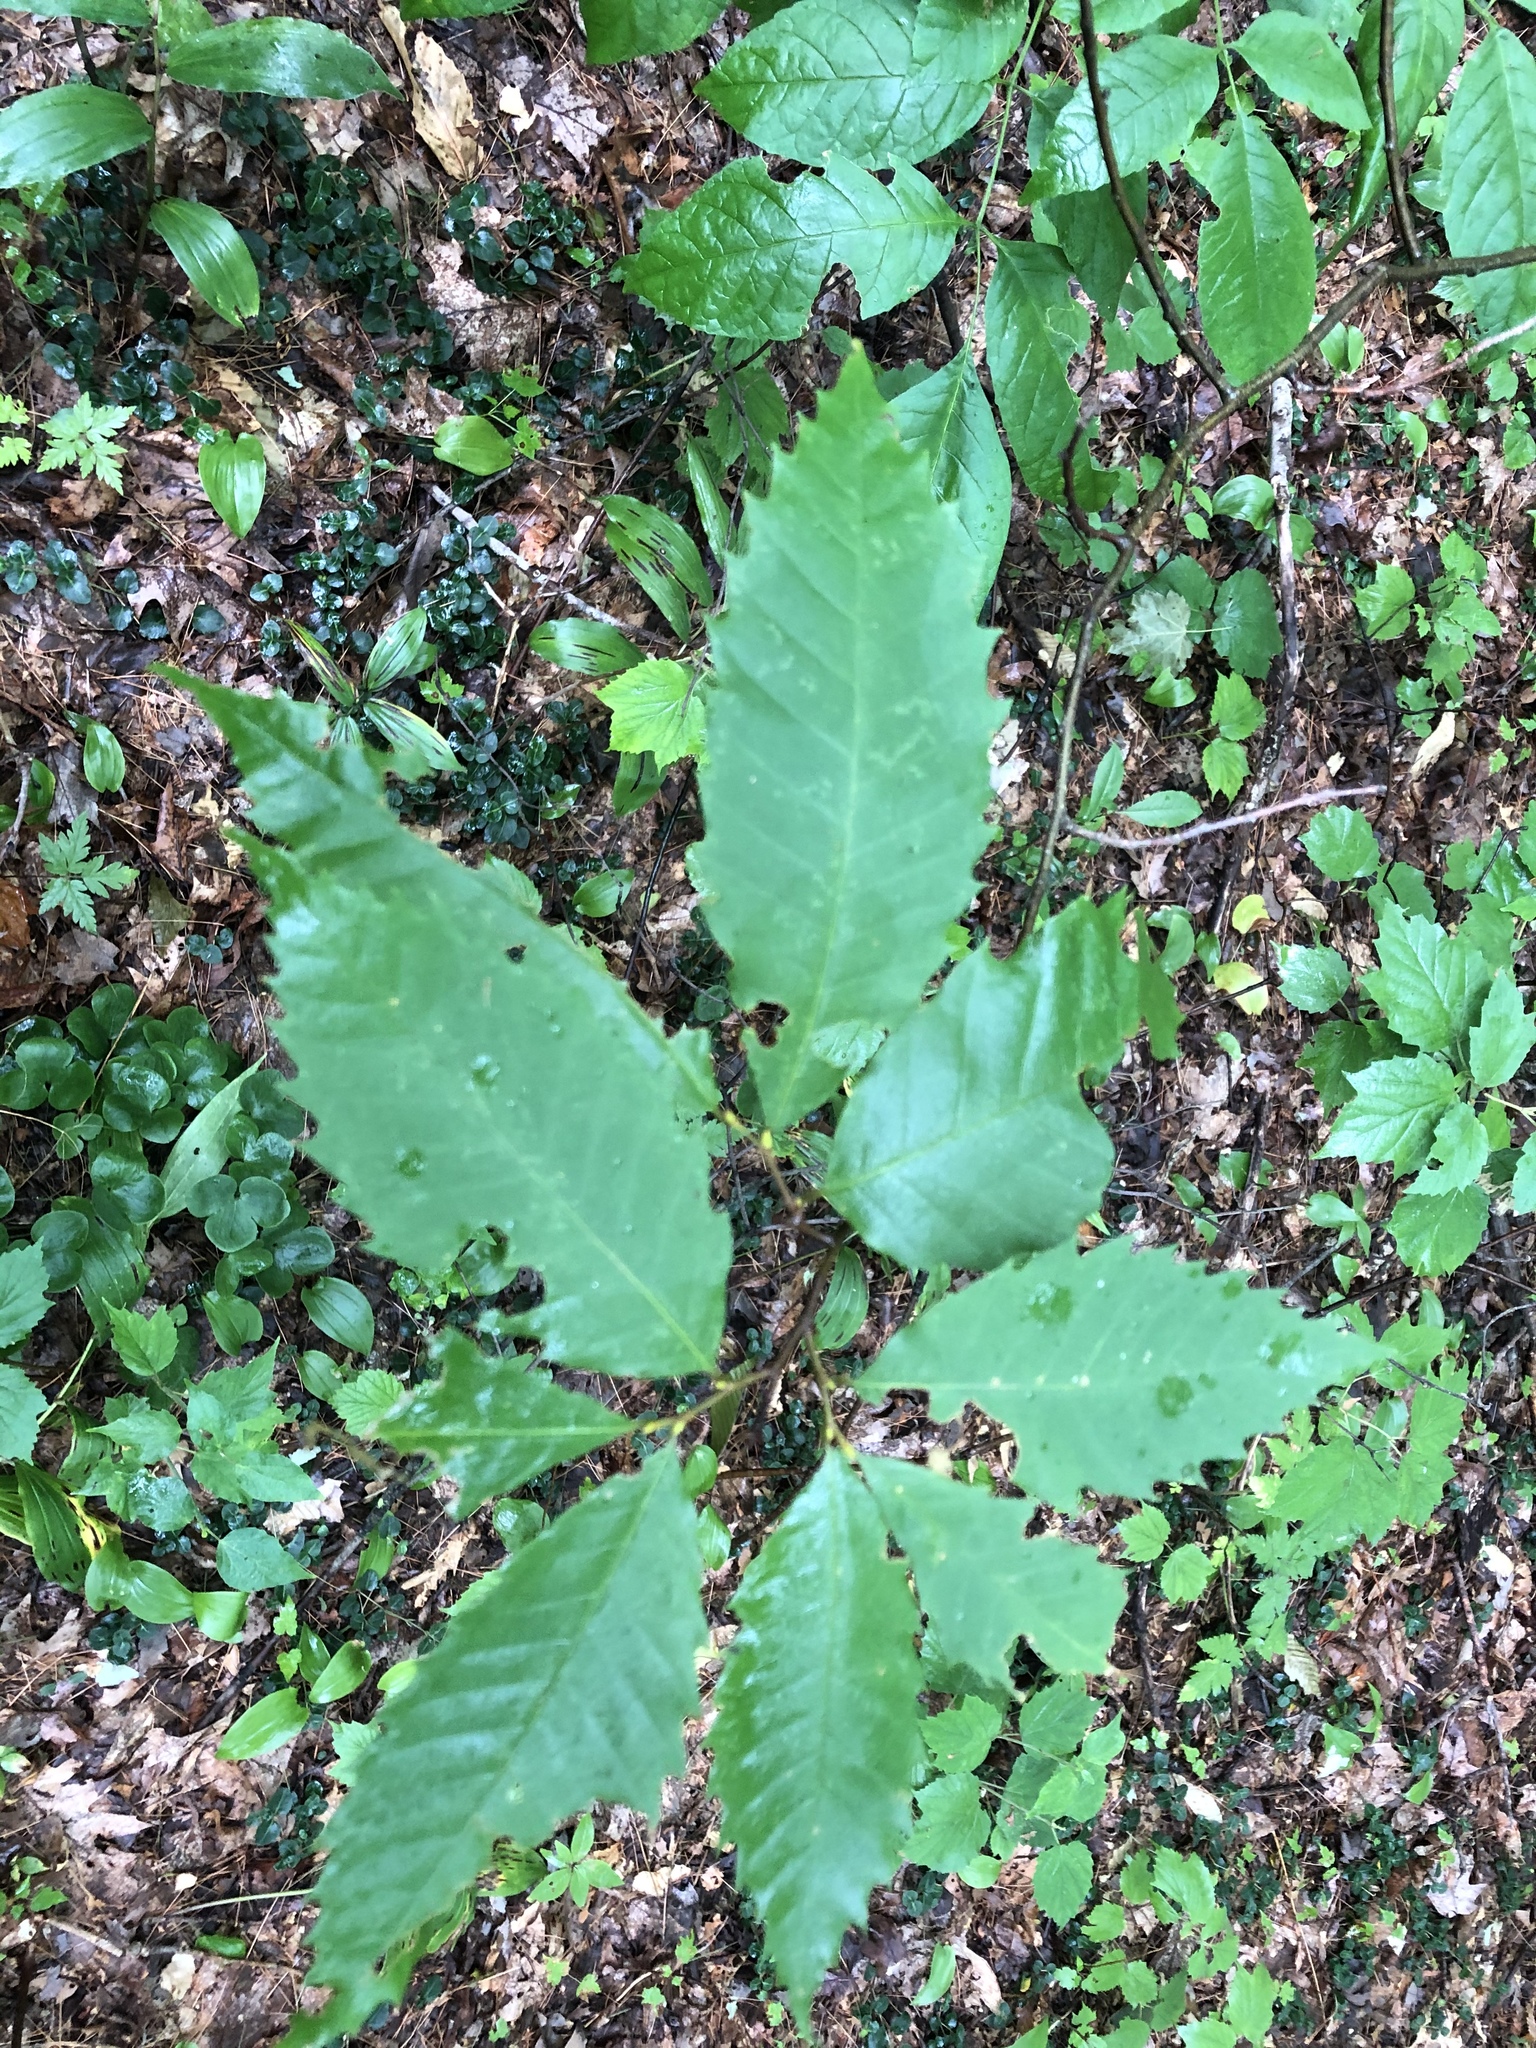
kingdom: Plantae
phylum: Tracheophyta
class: Magnoliopsida
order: Fagales
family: Fagaceae
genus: Castanea
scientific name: Castanea dentata
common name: American chestnut
